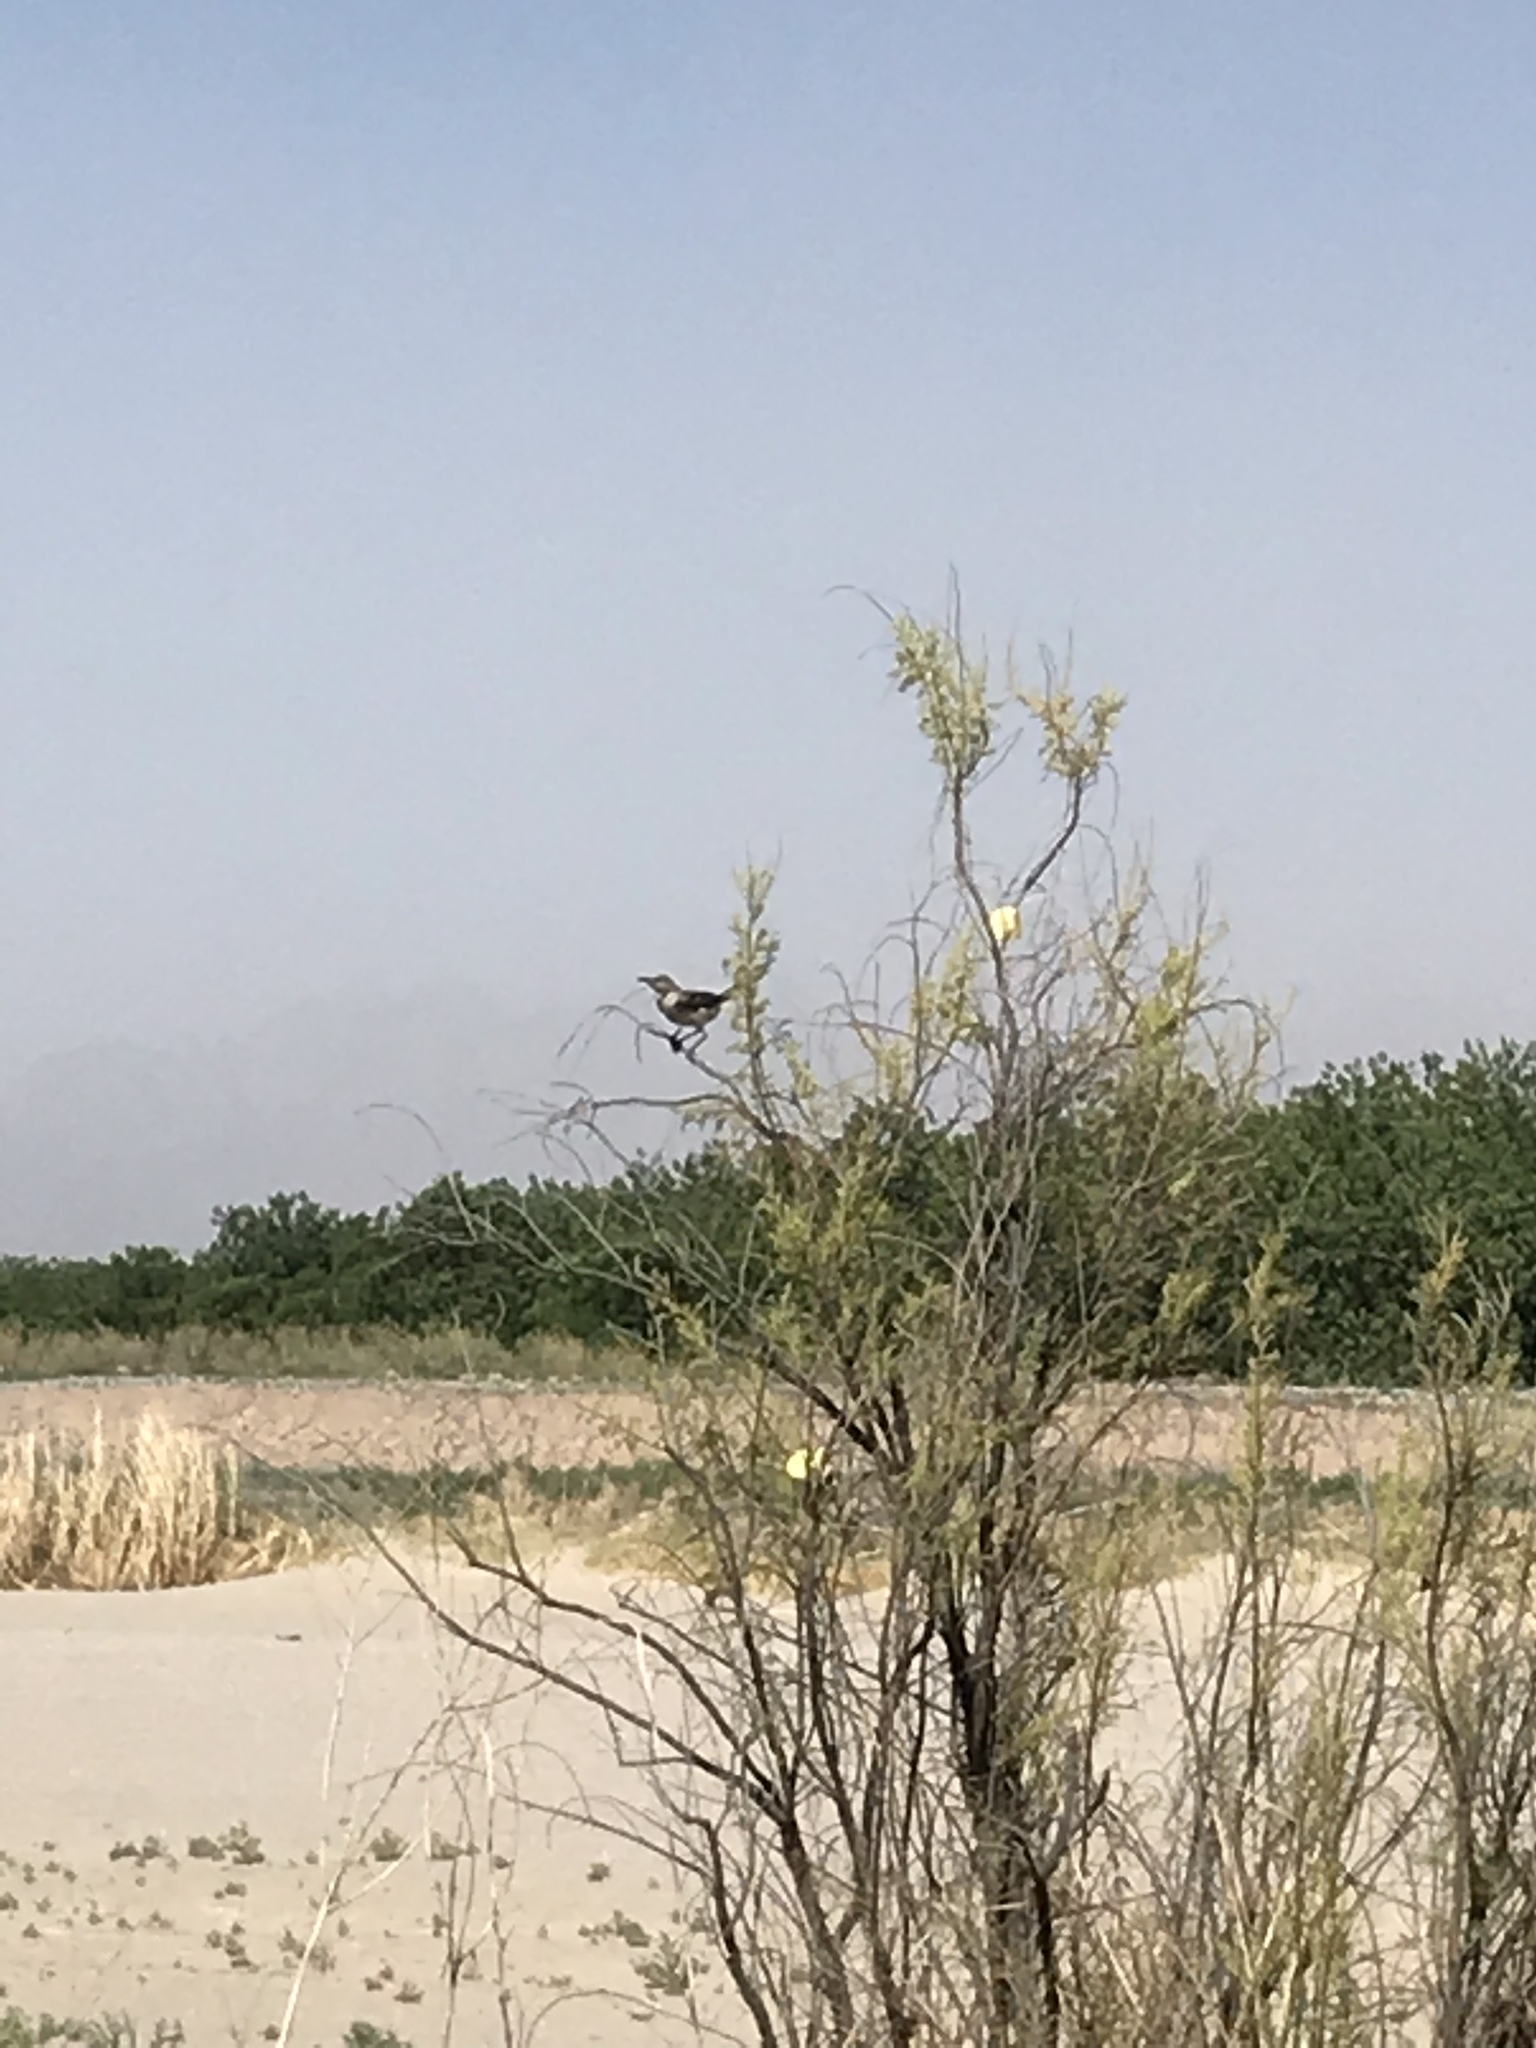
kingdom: Animalia
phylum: Chordata
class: Aves
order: Passeriformes
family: Mimidae
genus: Mimus
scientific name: Mimus polyglottos
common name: Northern mockingbird
